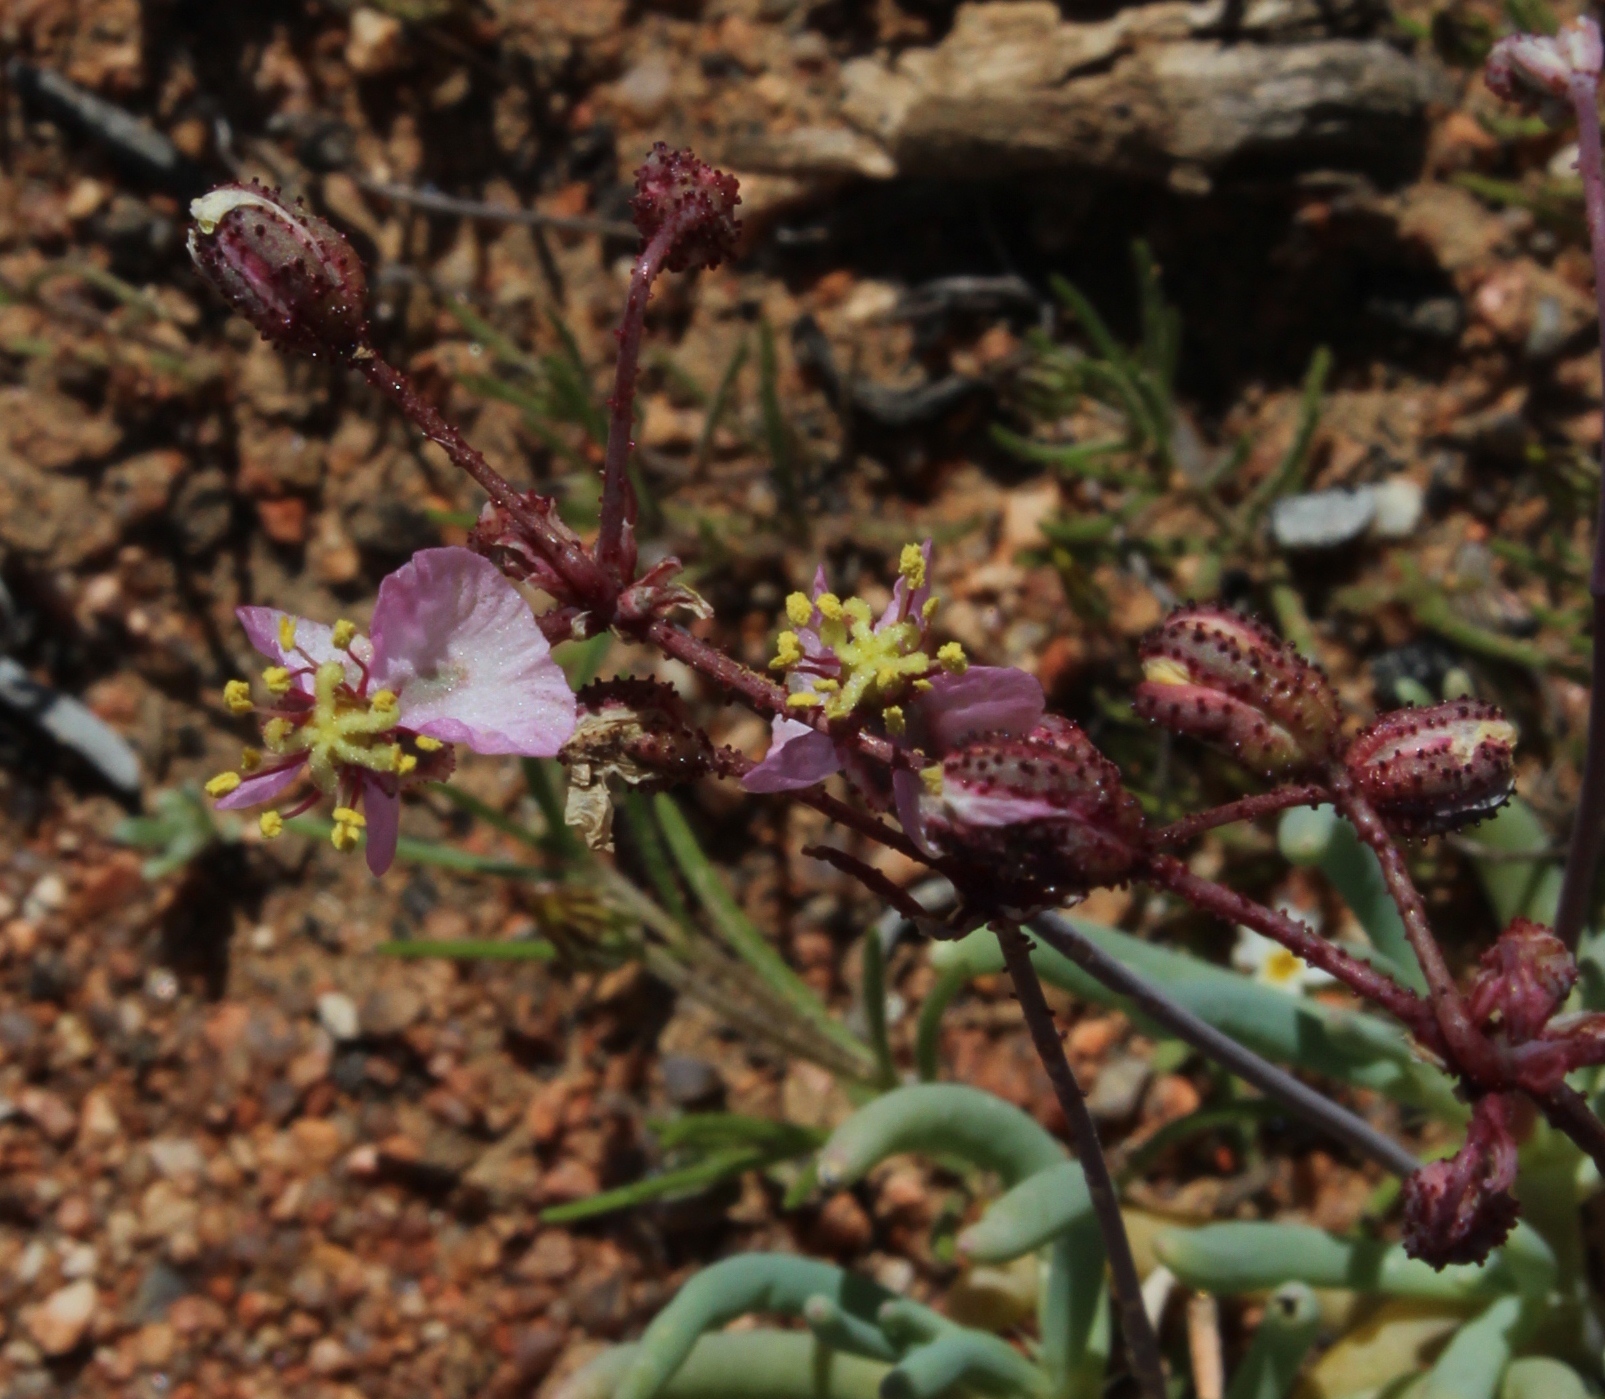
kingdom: Plantae
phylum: Tracheophyta
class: Magnoliopsida
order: Caryophyllales
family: Kewaceae
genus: Kewa
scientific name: Kewa salsoloides
